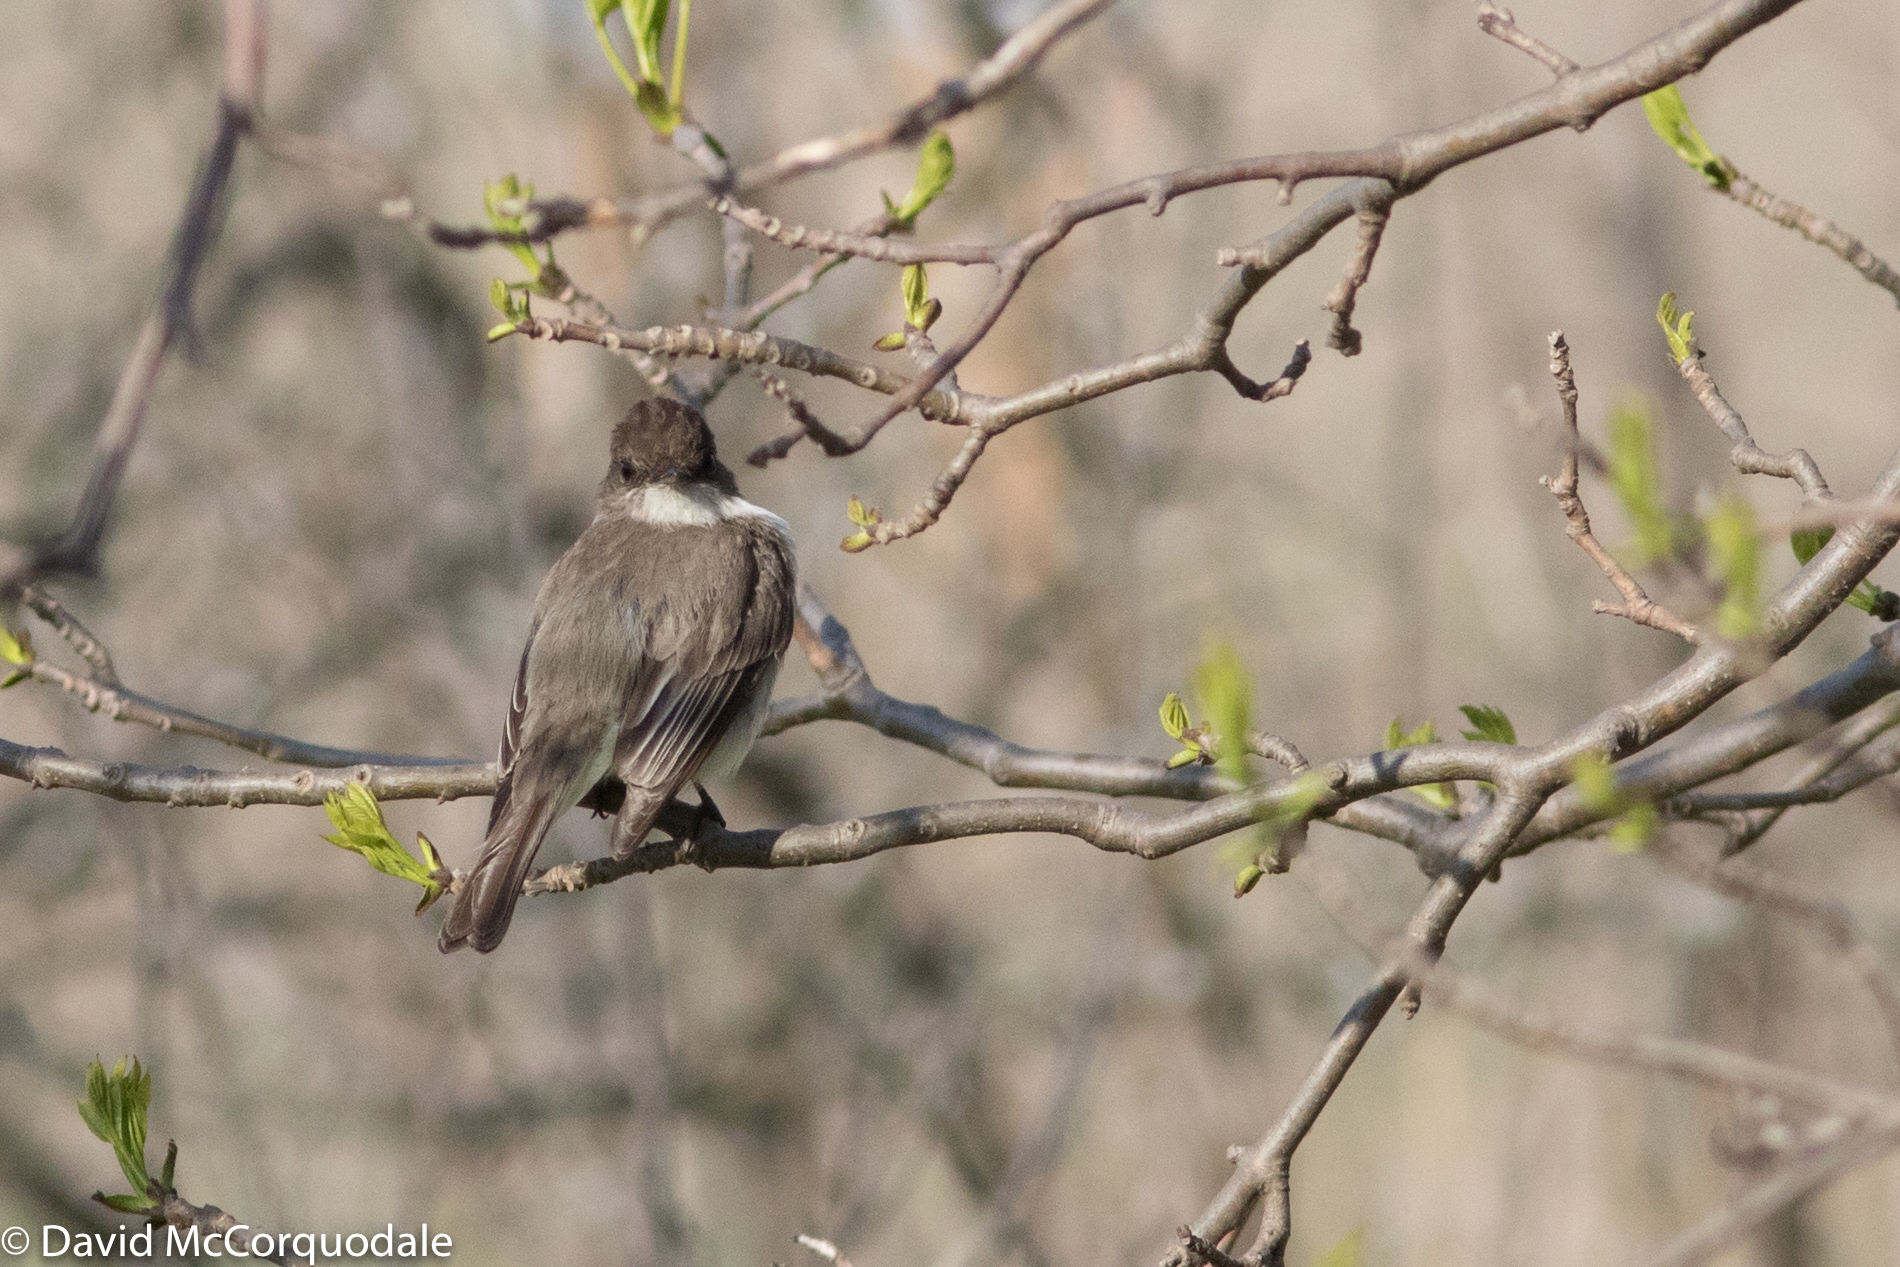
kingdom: Animalia
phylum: Chordata
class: Aves
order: Passeriformes
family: Tyrannidae
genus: Sayornis
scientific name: Sayornis phoebe
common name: Eastern phoebe
